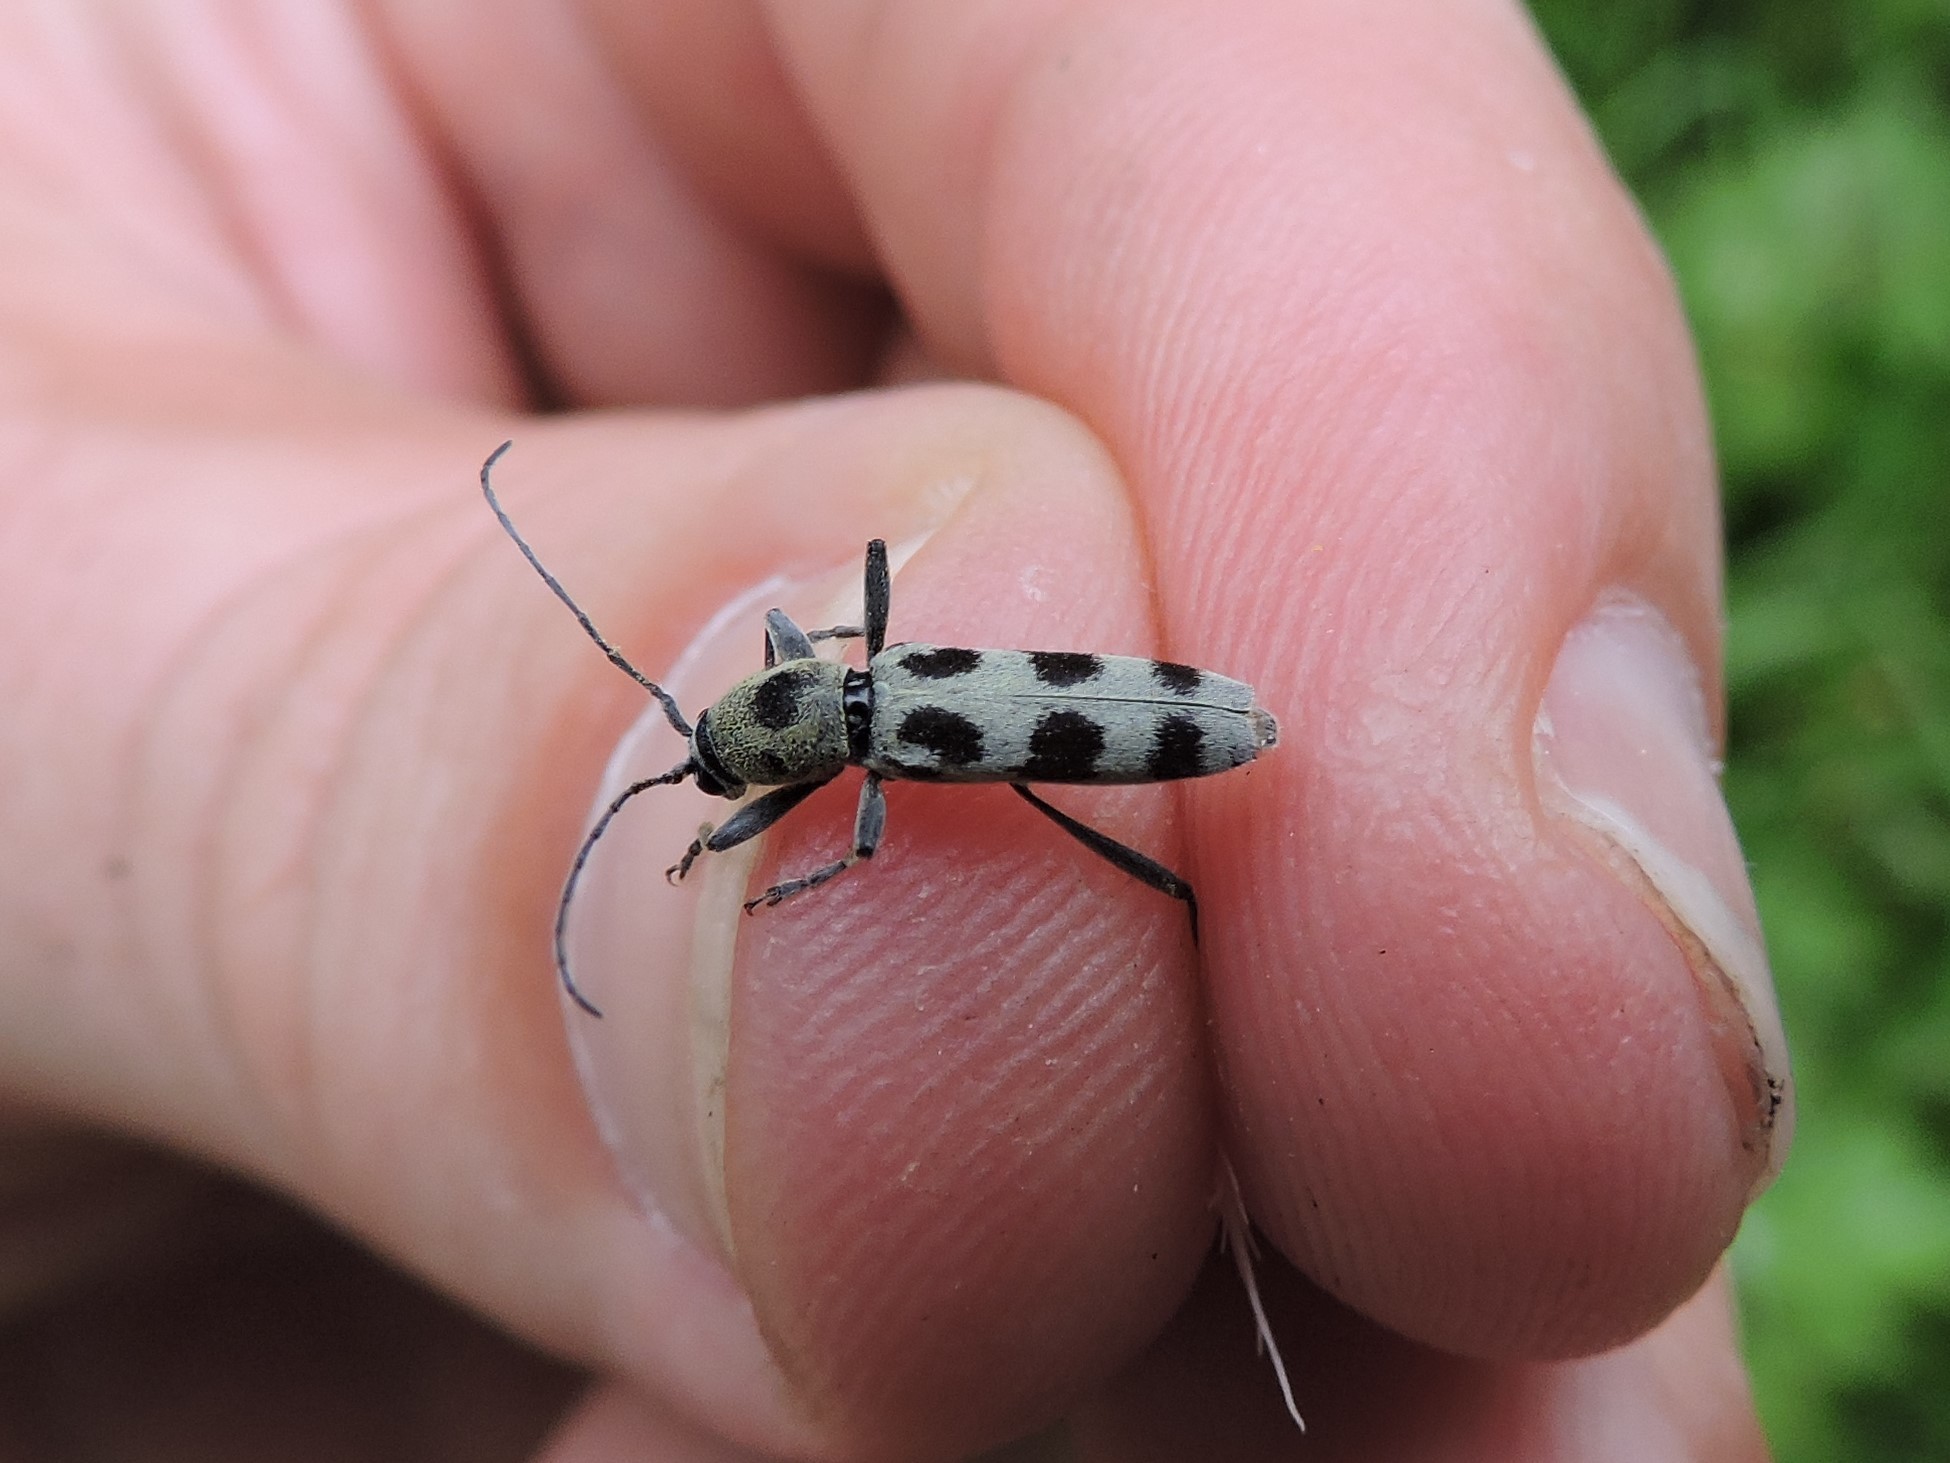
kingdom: Animalia
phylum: Arthropoda
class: Insecta
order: Coleoptera
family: Cerambycidae
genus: Chlorophorus
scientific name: Chlorophorus herbstii
